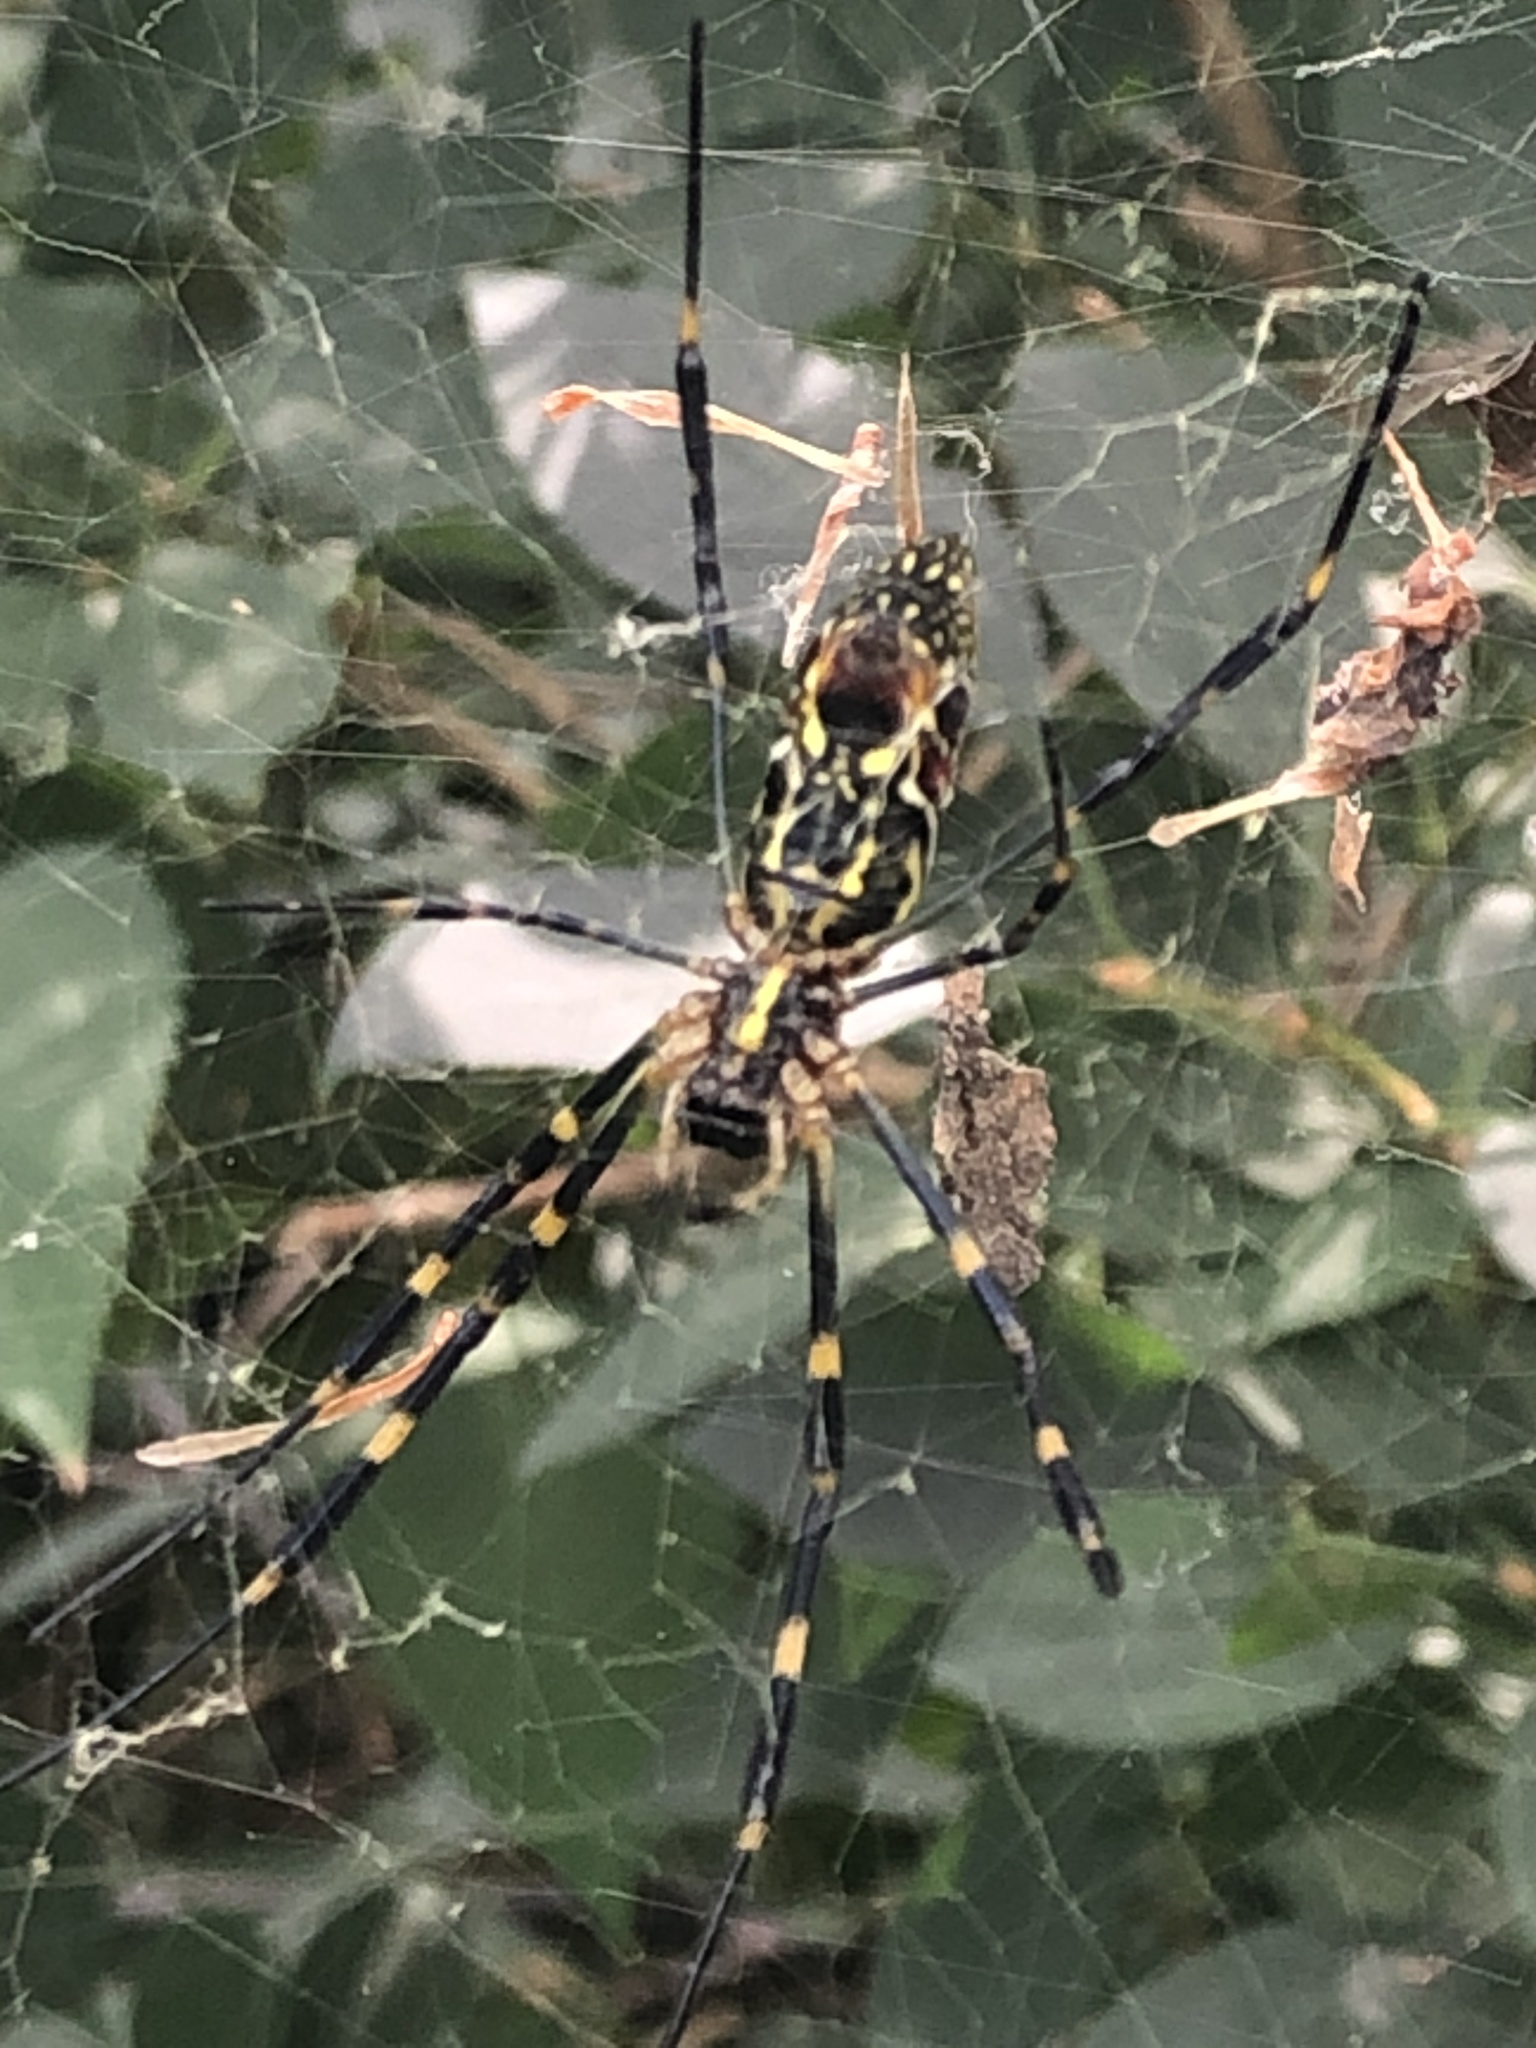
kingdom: Animalia
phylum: Arthropoda
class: Arachnida
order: Araneae
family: Araneidae
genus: Trichonephila
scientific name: Trichonephila clavata
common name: Jorō spider
